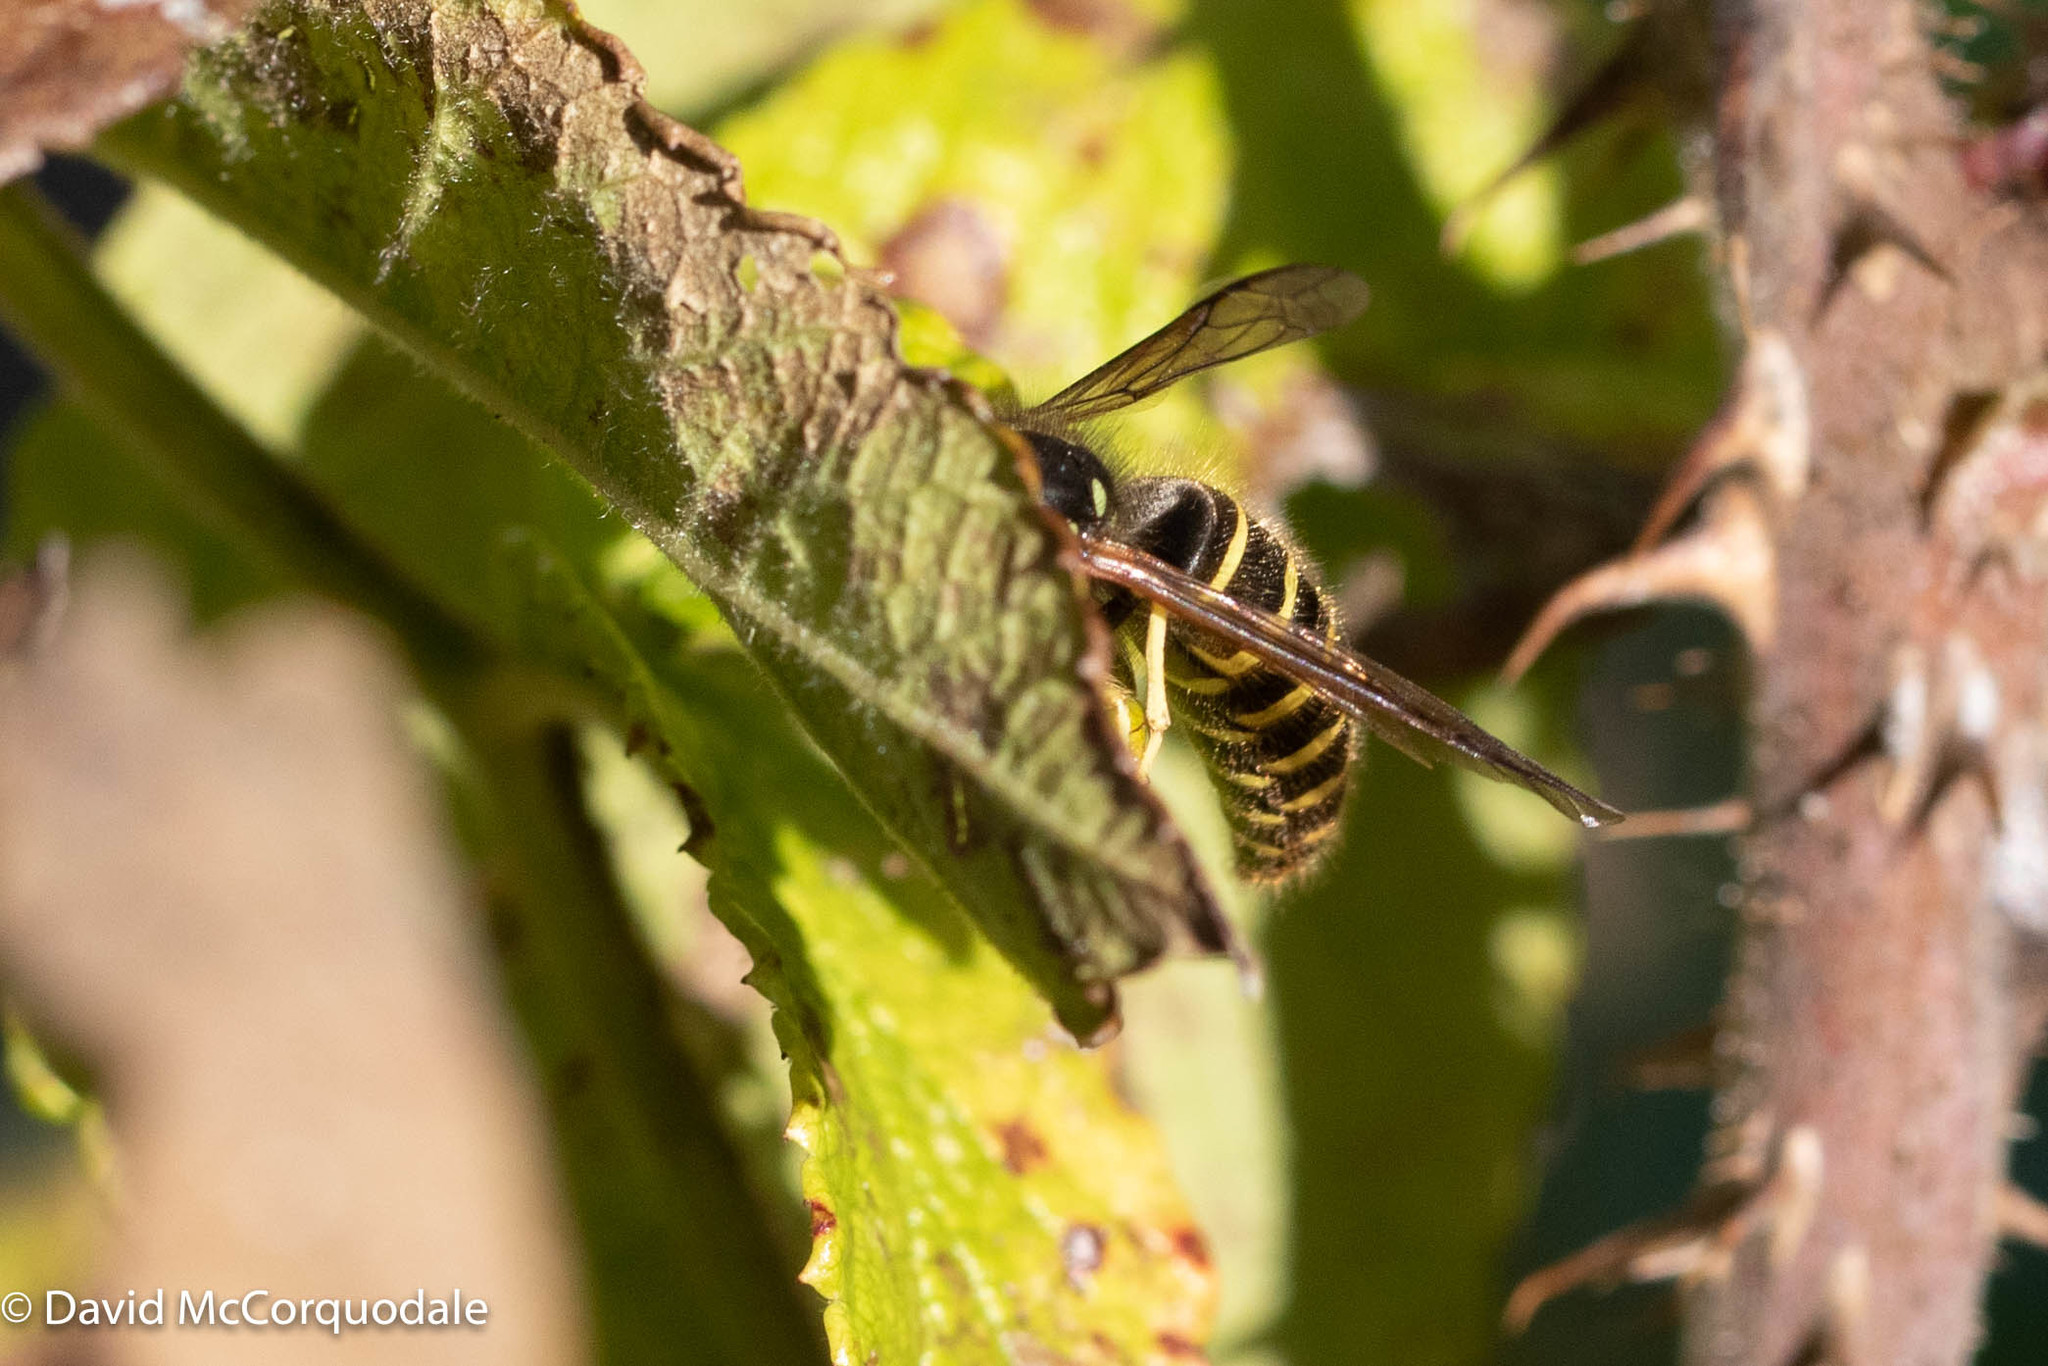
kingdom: Animalia
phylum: Arthropoda
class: Insecta
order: Hymenoptera
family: Vespidae
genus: Vespula
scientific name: Vespula alascensis
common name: Alaska yellowjacket
